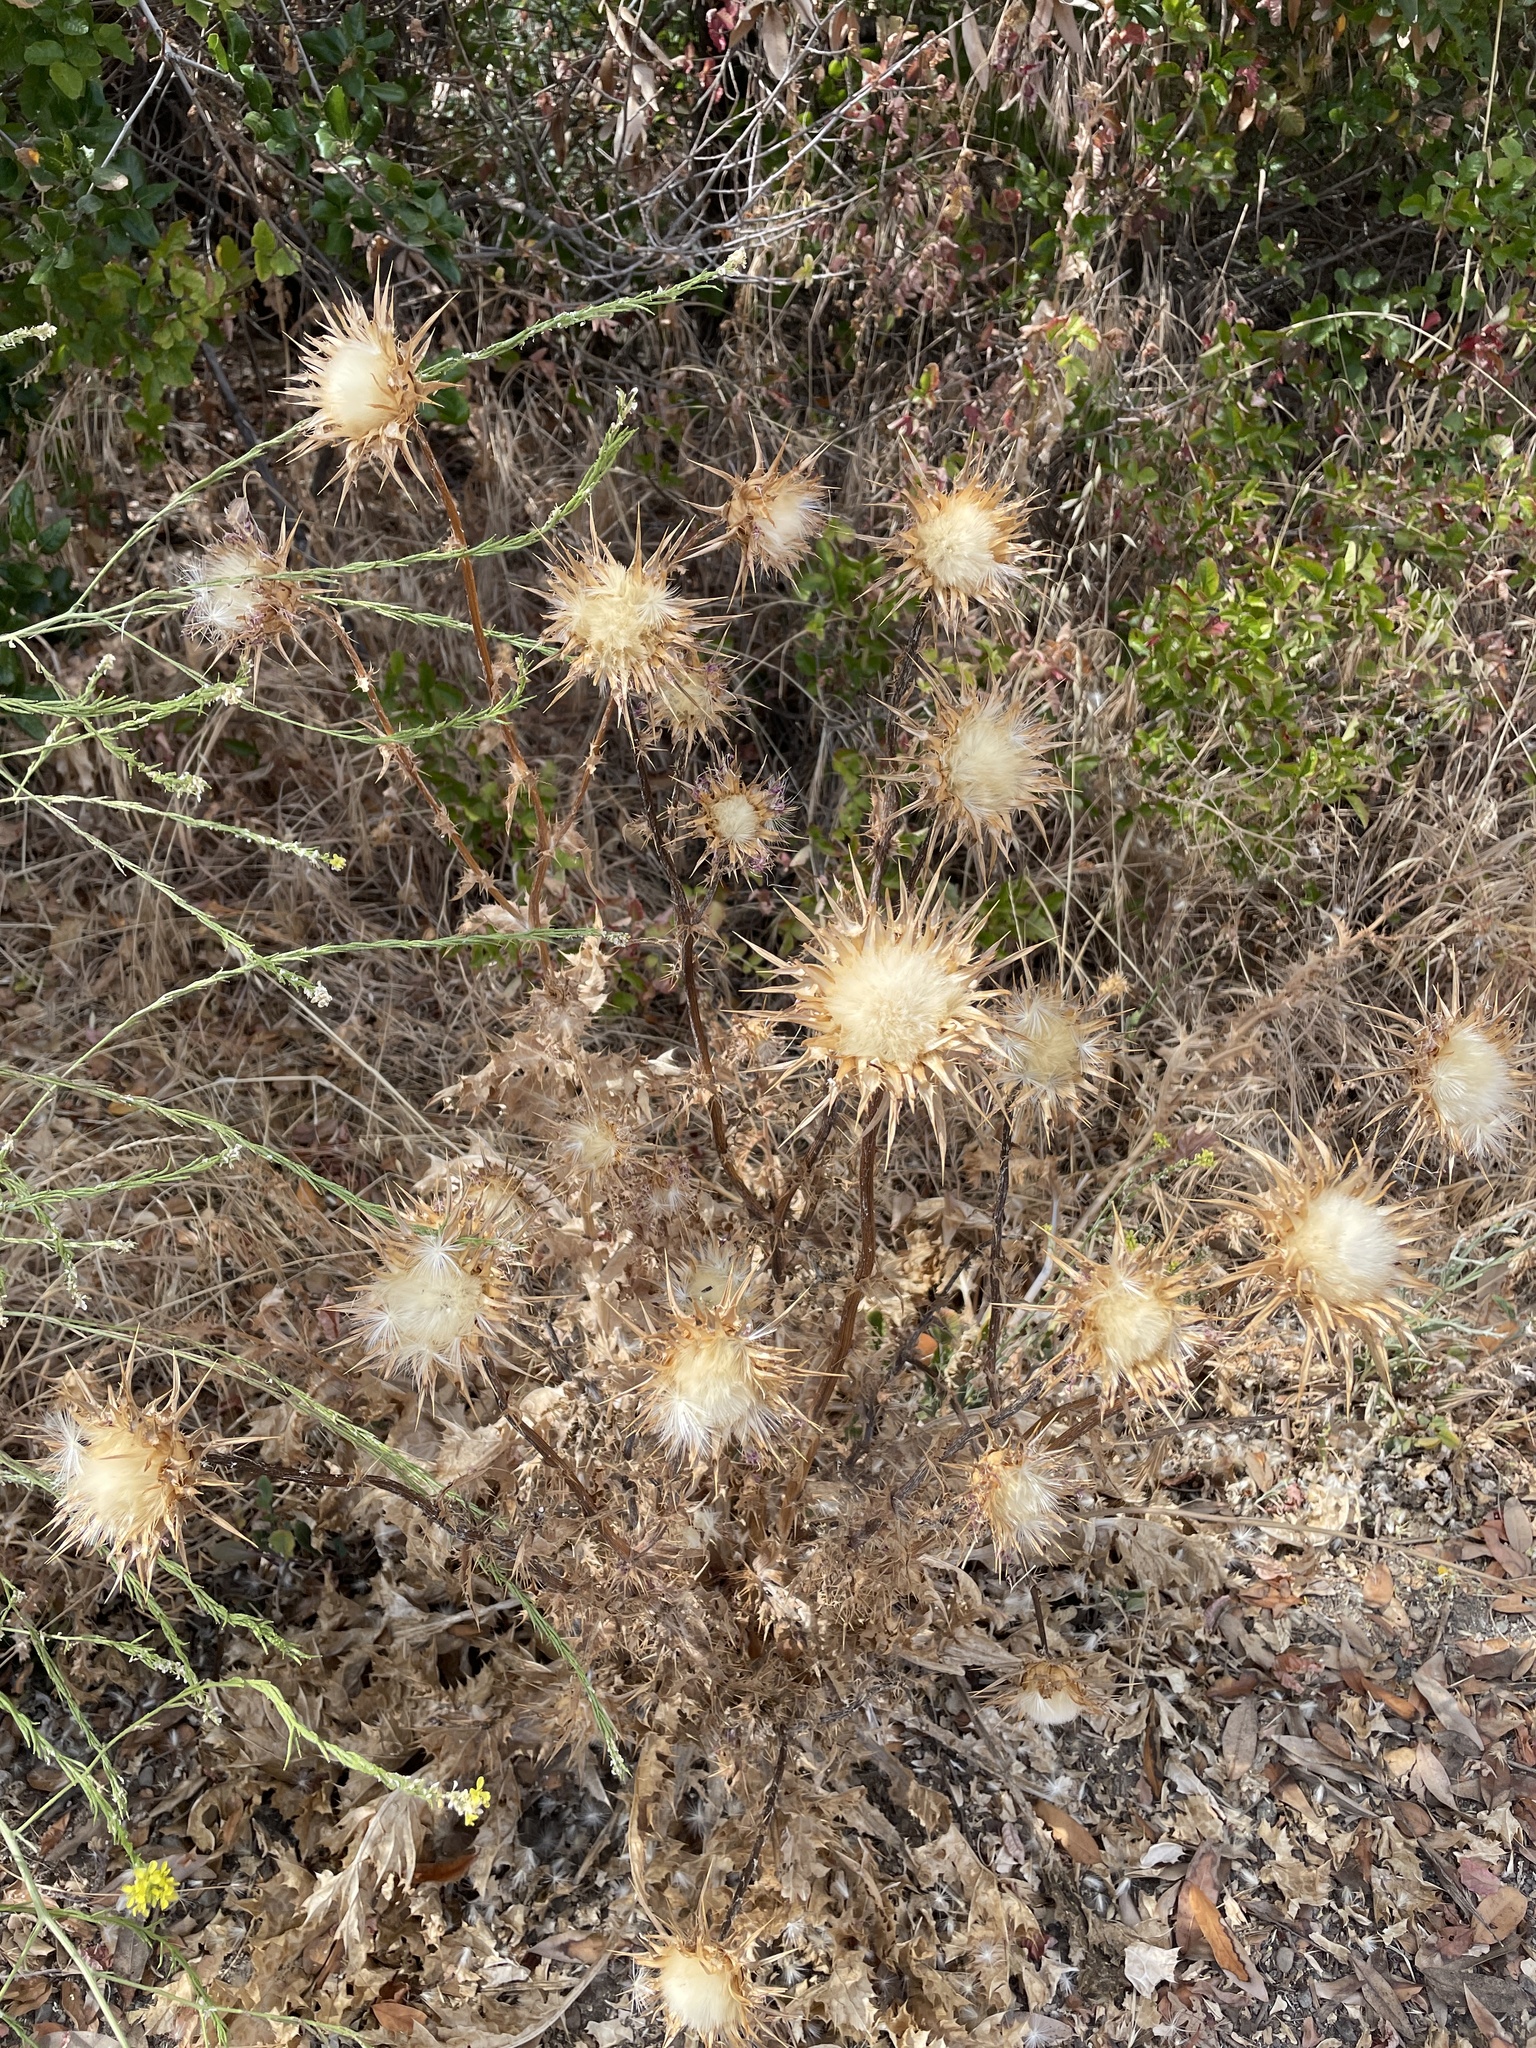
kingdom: Plantae
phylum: Tracheophyta
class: Magnoliopsida
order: Asterales
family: Asteraceae
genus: Silybum
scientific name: Silybum marianum
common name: Milk thistle
